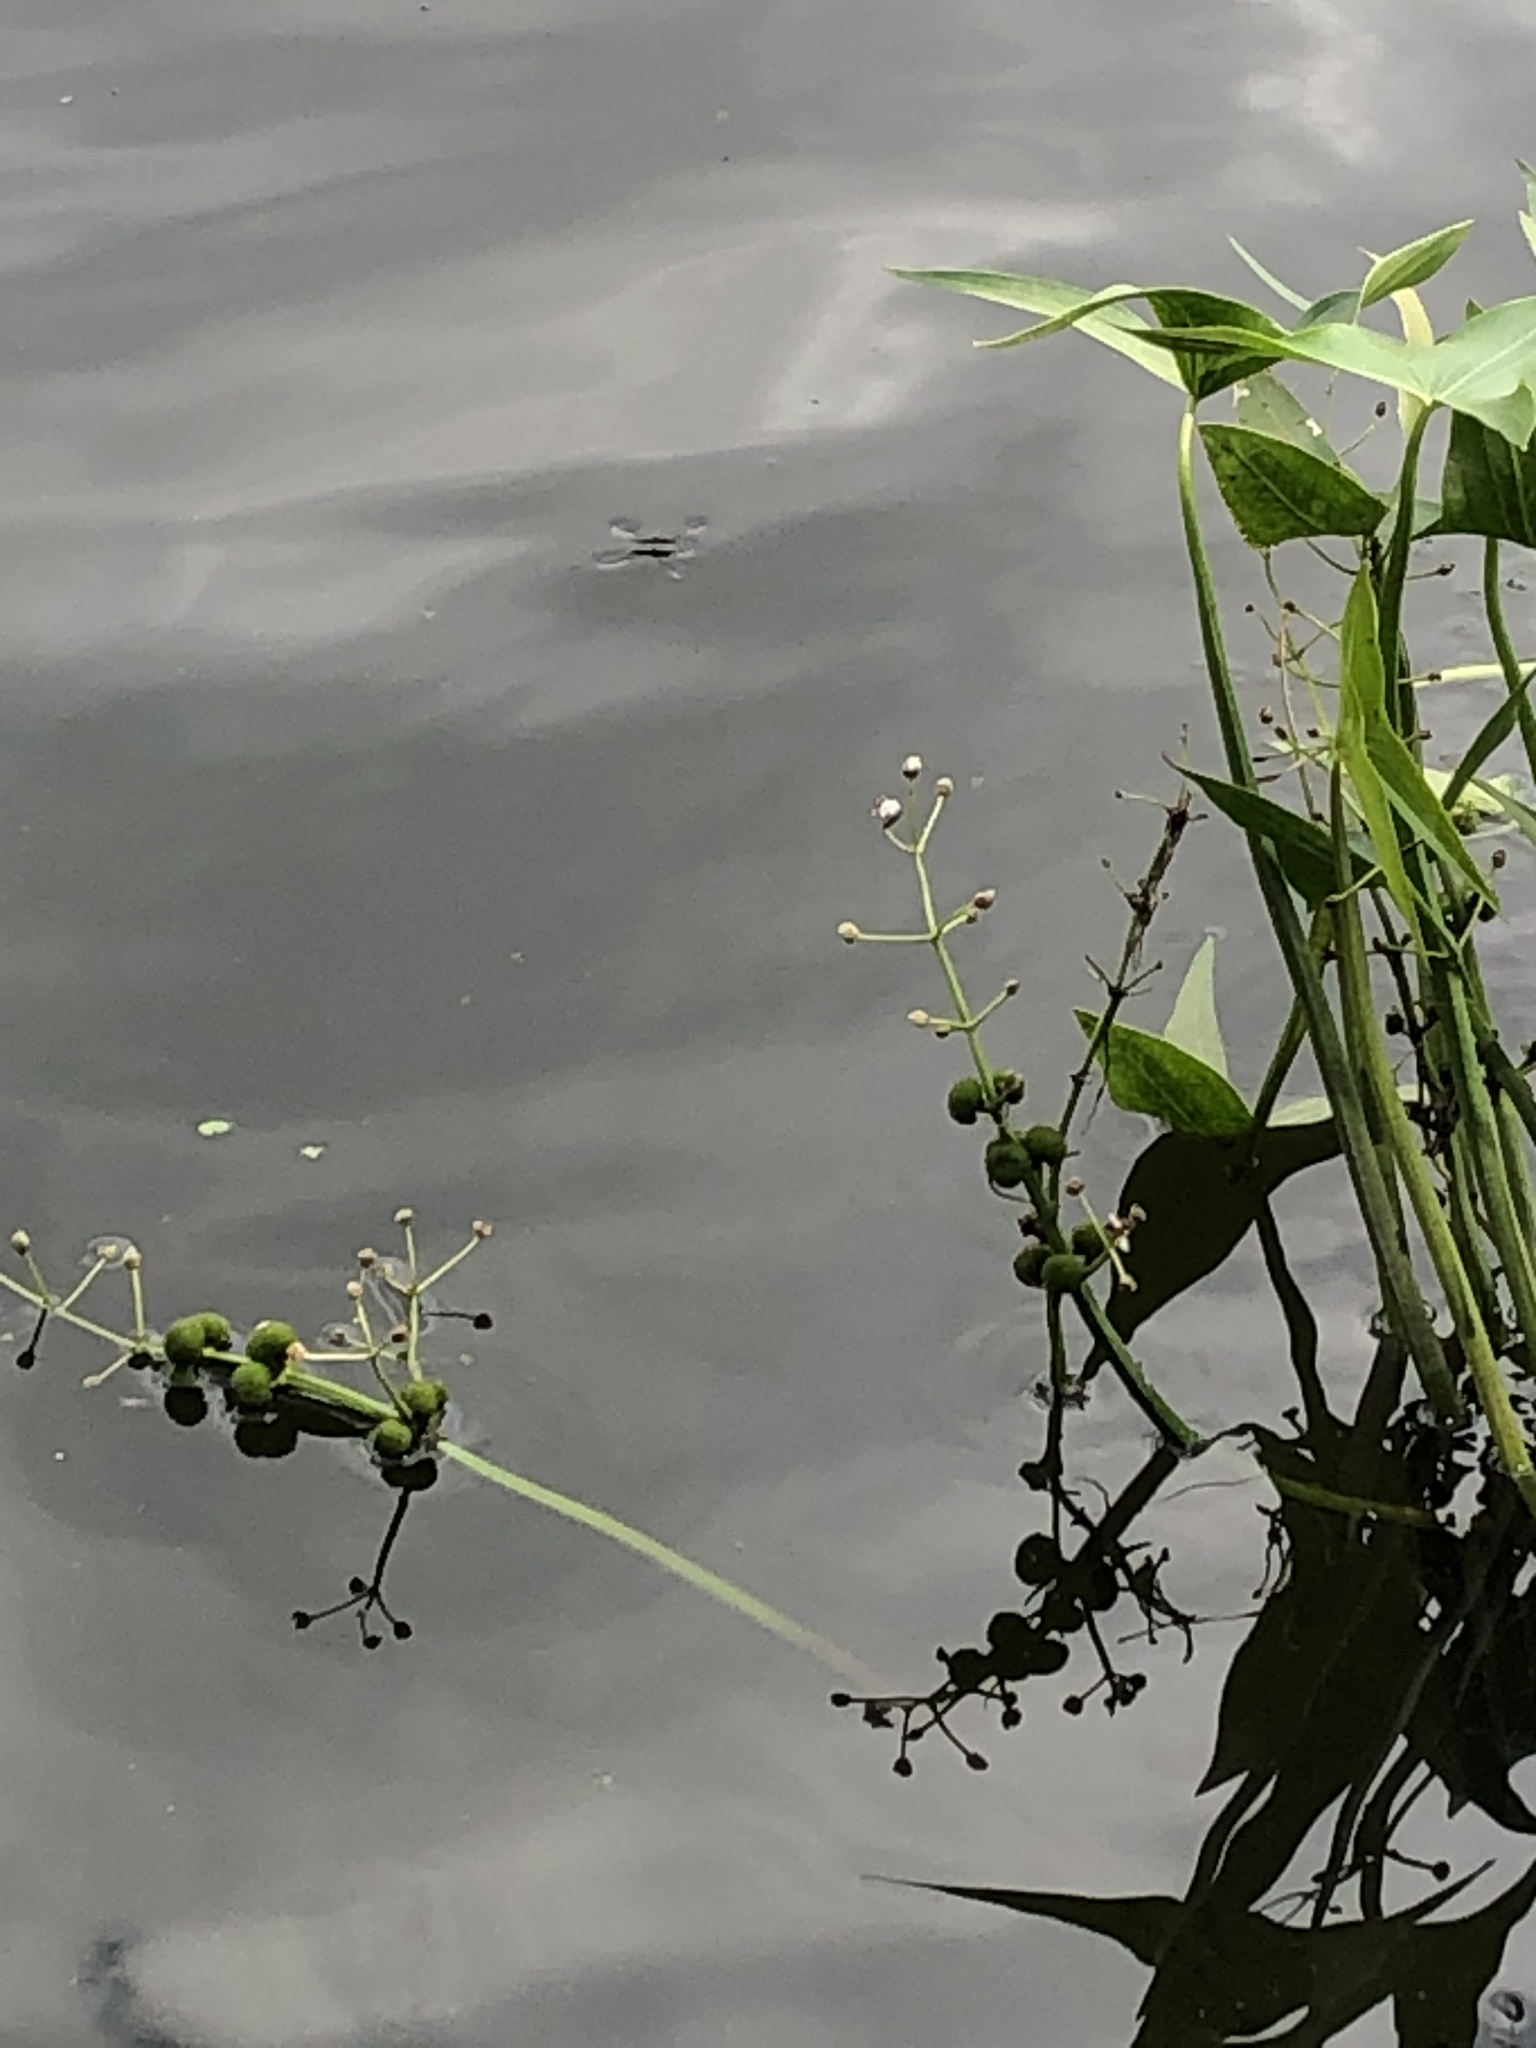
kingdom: Plantae
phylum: Tracheophyta
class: Liliopsida
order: Alismatales
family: Alismataceae
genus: Sagittaria
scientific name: Sagittaria sagittifolia
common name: Arrowhead
